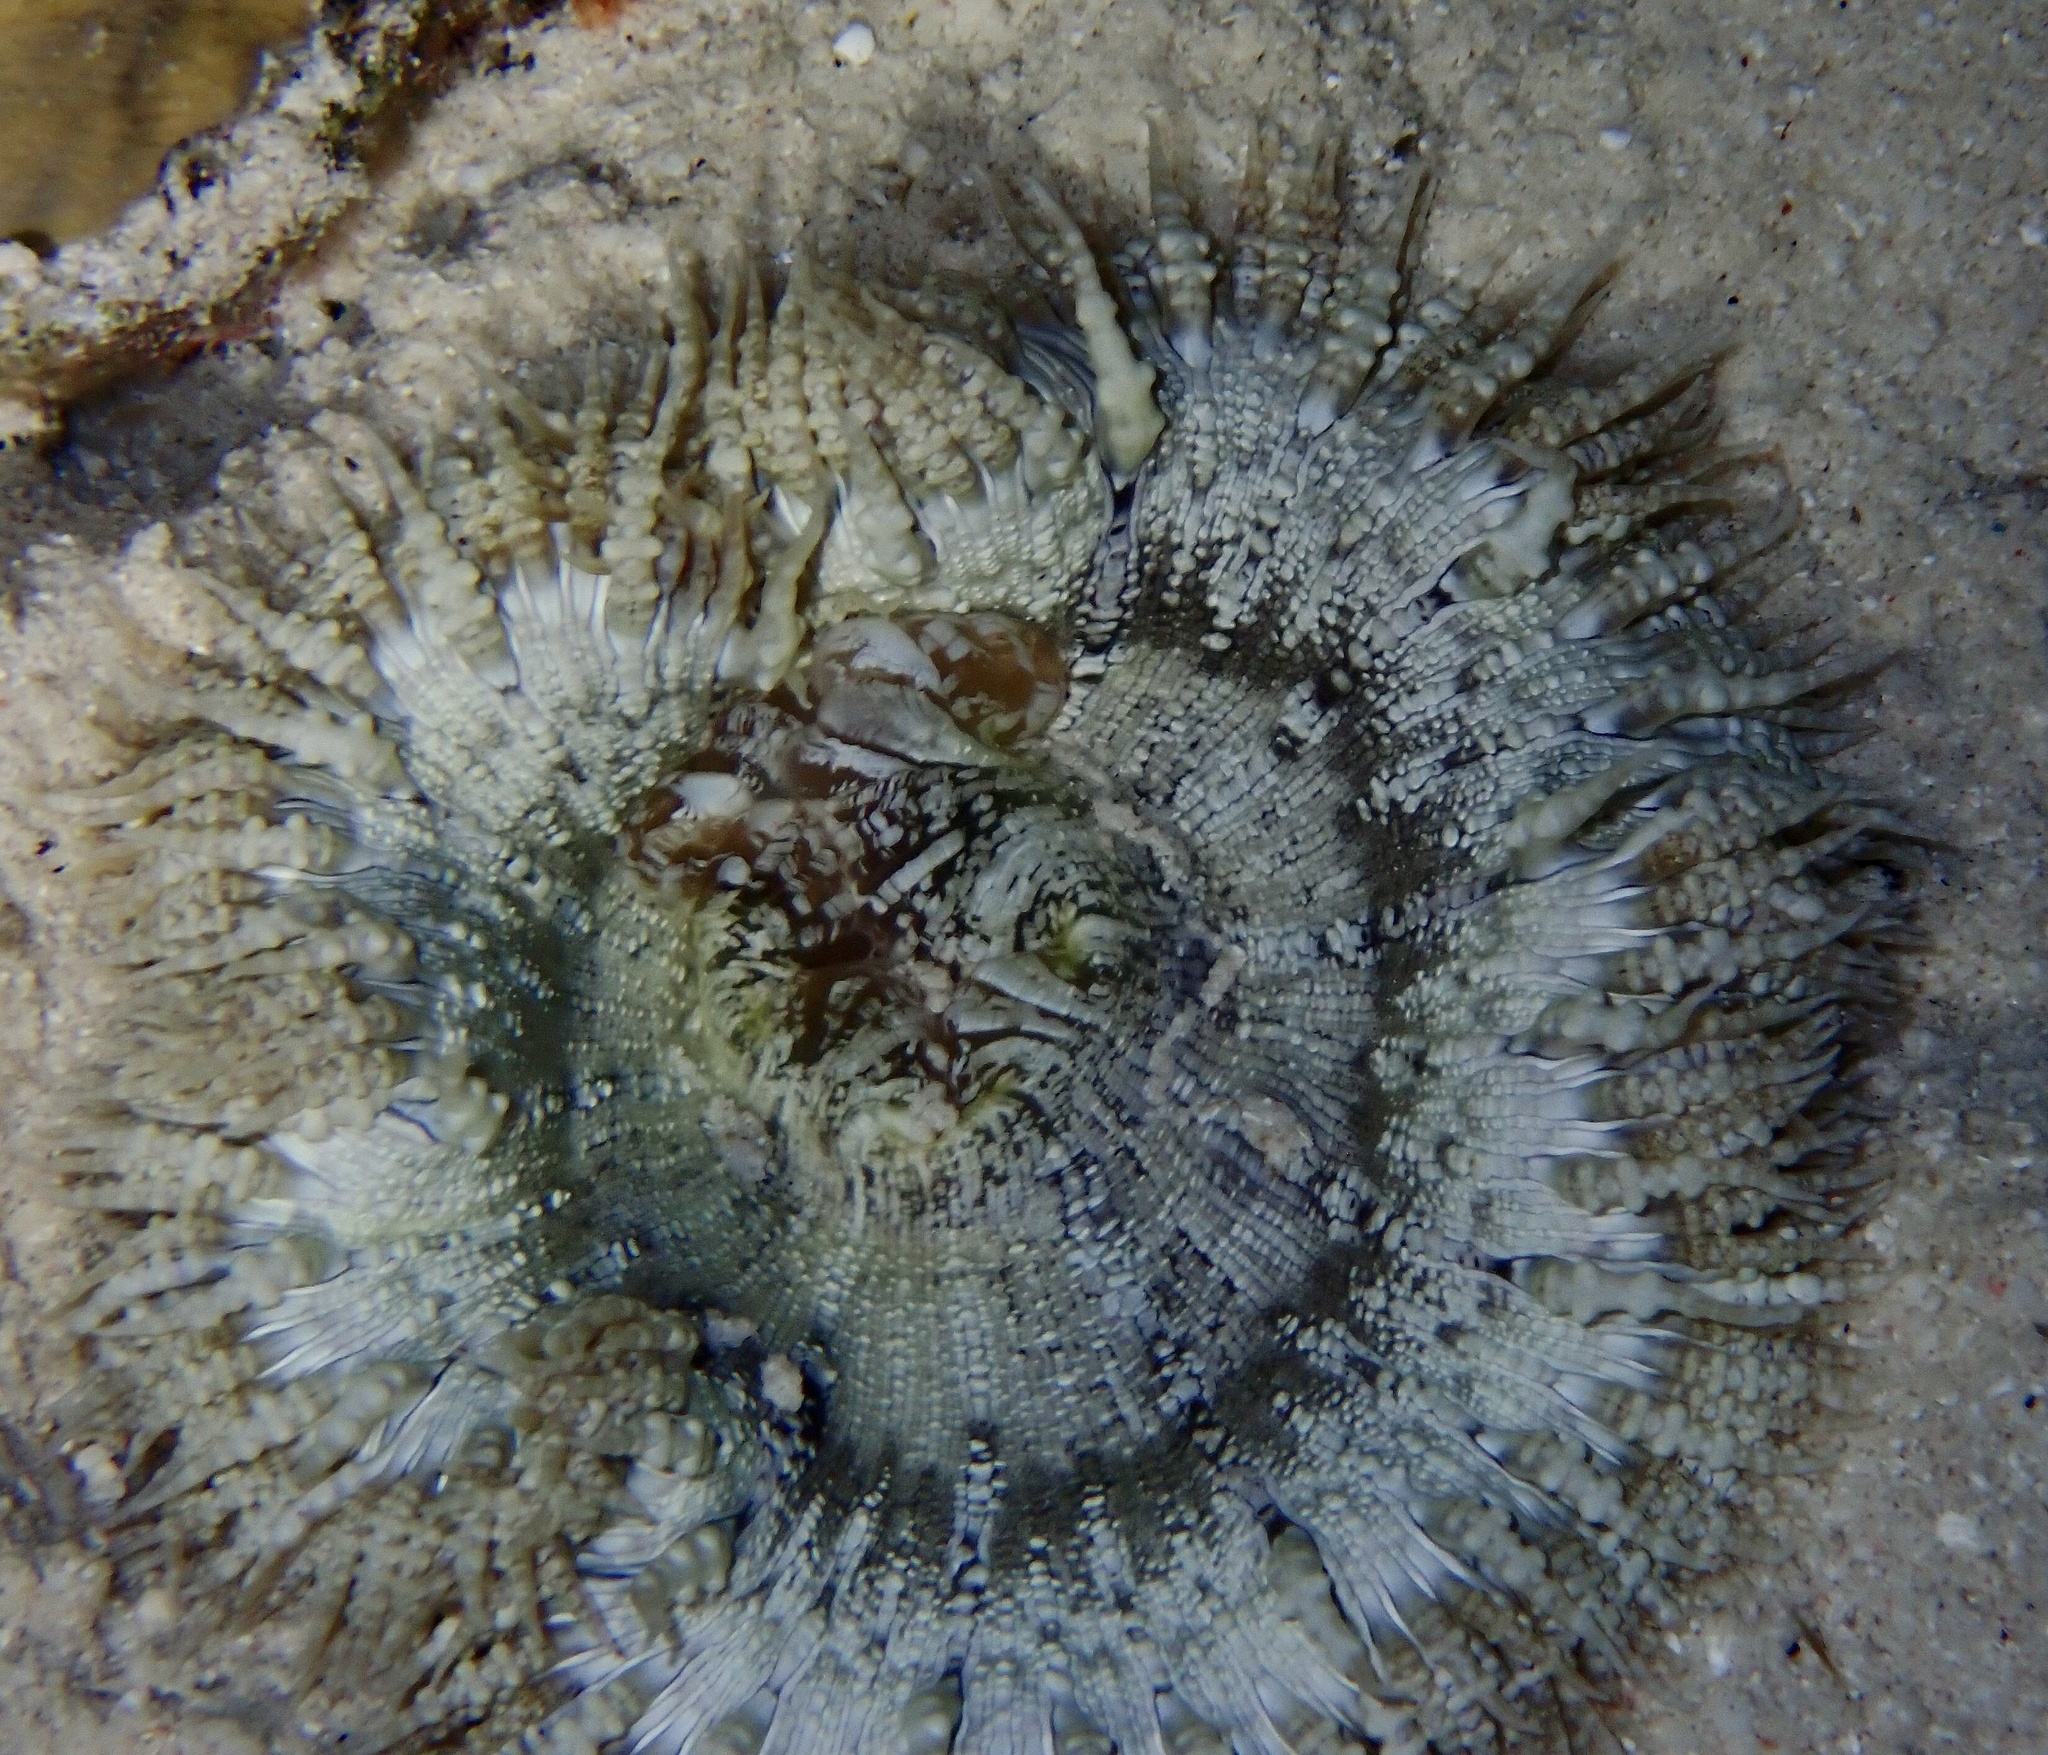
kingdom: Animalia
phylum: Cnidaria
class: Anthozoa
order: Actiniaria
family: Phymanthidae
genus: Phymanthus
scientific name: Phymanthus crucifer
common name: Red beaded anemone
